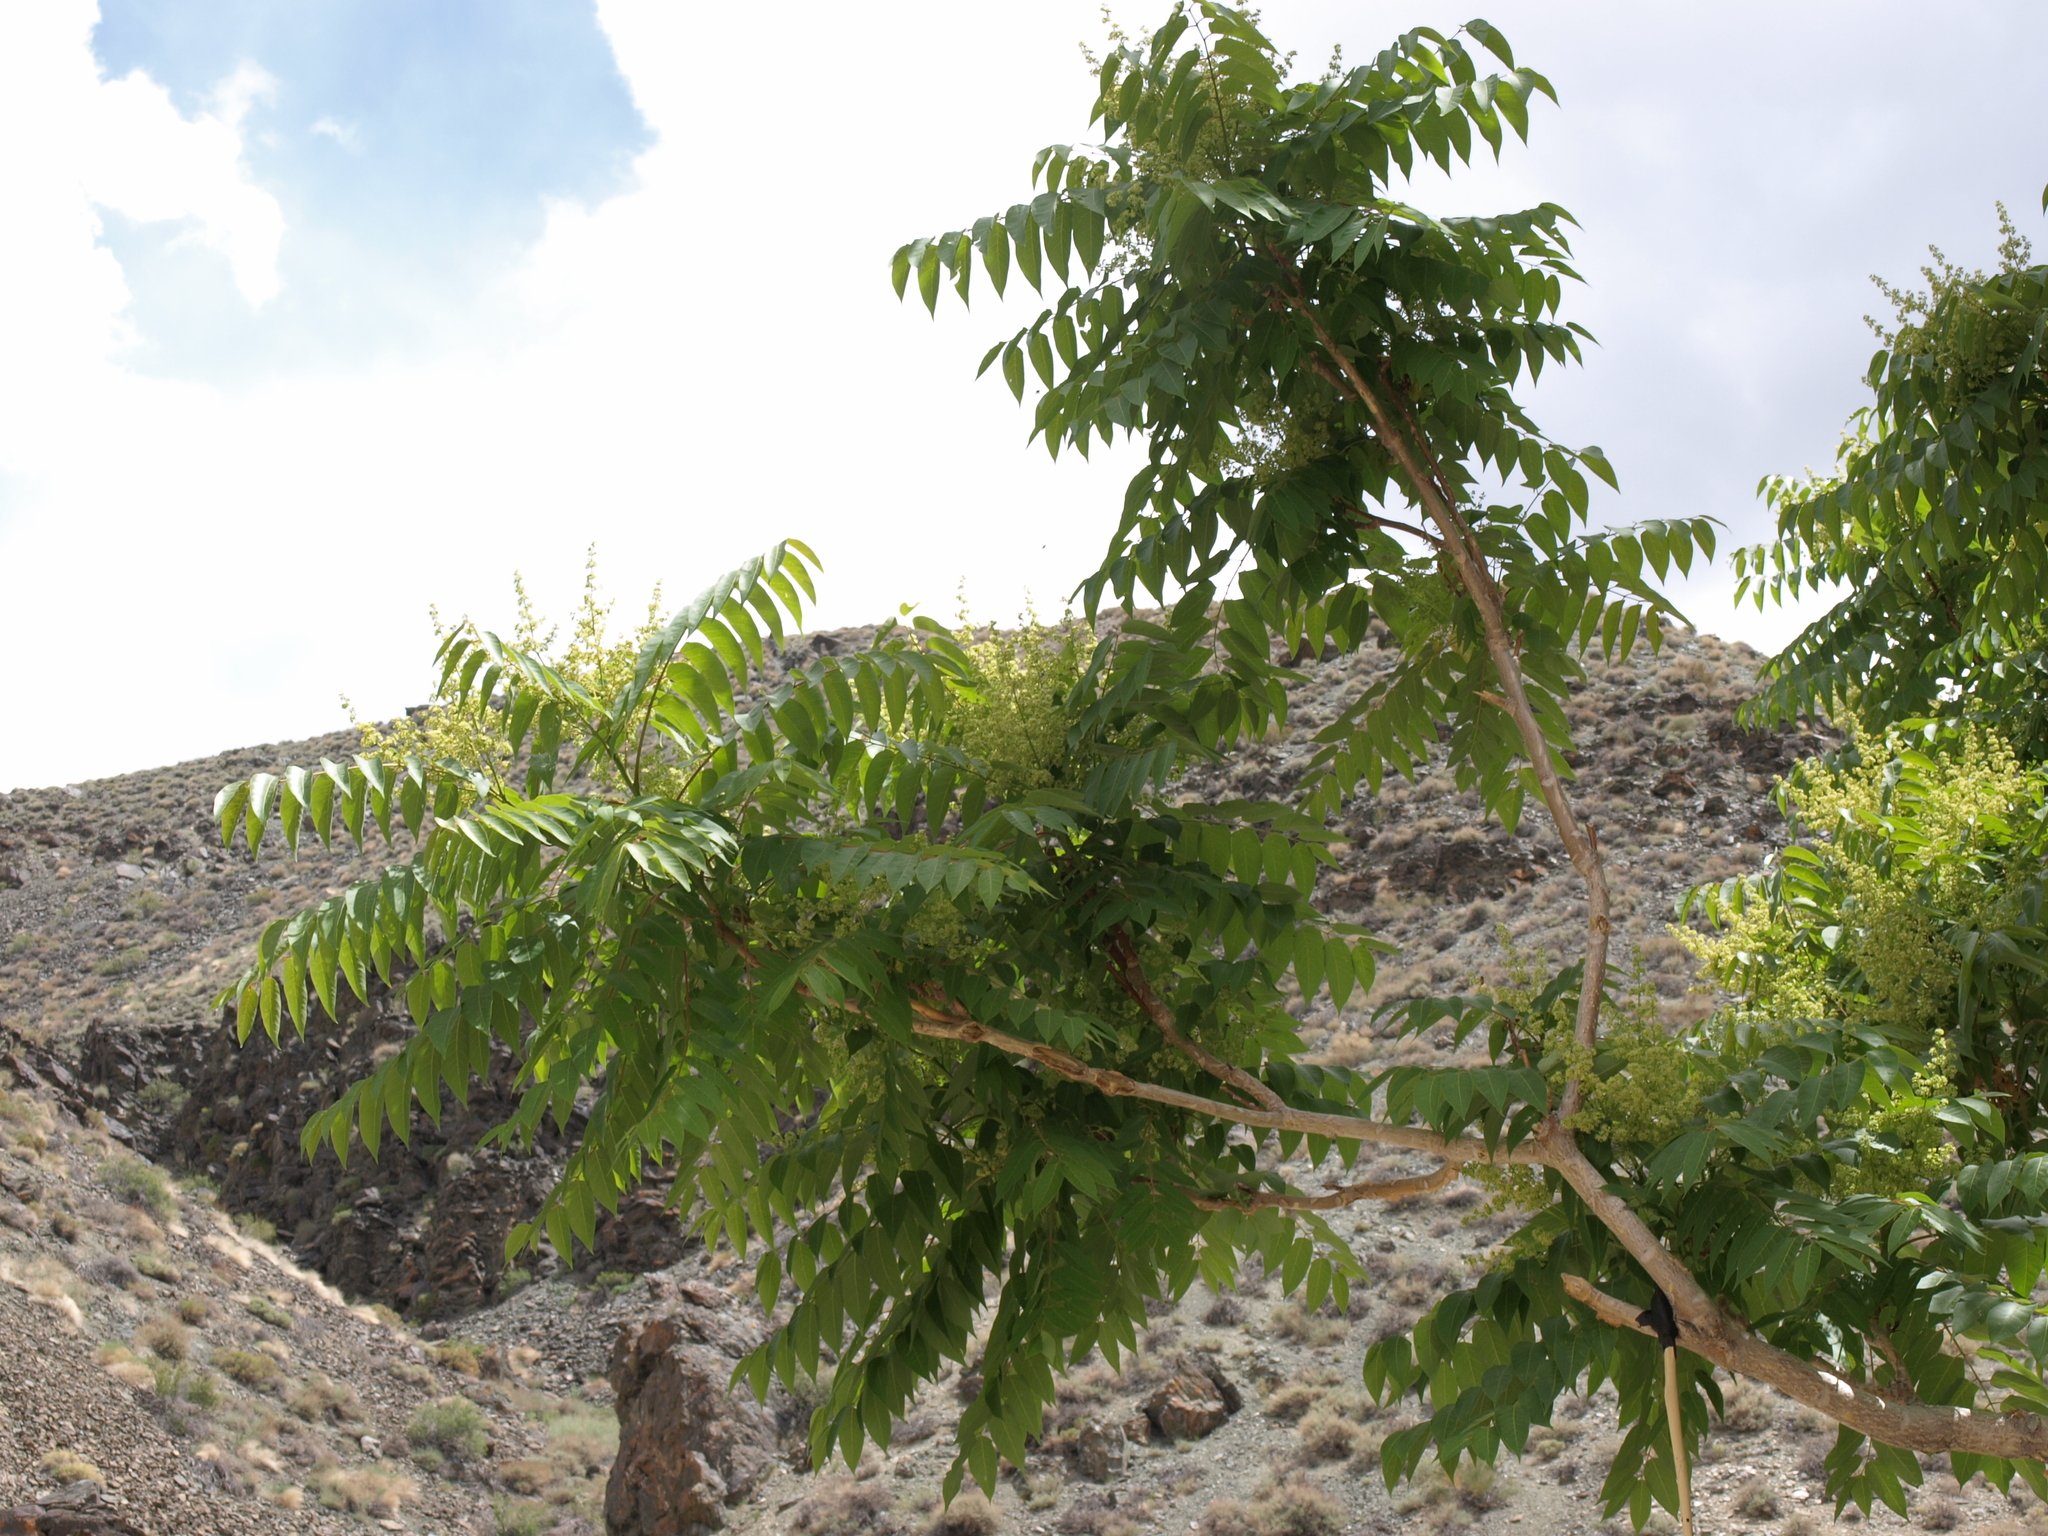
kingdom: Plantae
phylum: Tracheophyta
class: Magnoliopsida
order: Sapindales
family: Simaroubaceae
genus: Ailanthus
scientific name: Ailanthus altissima
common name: Tree-of-heaven
